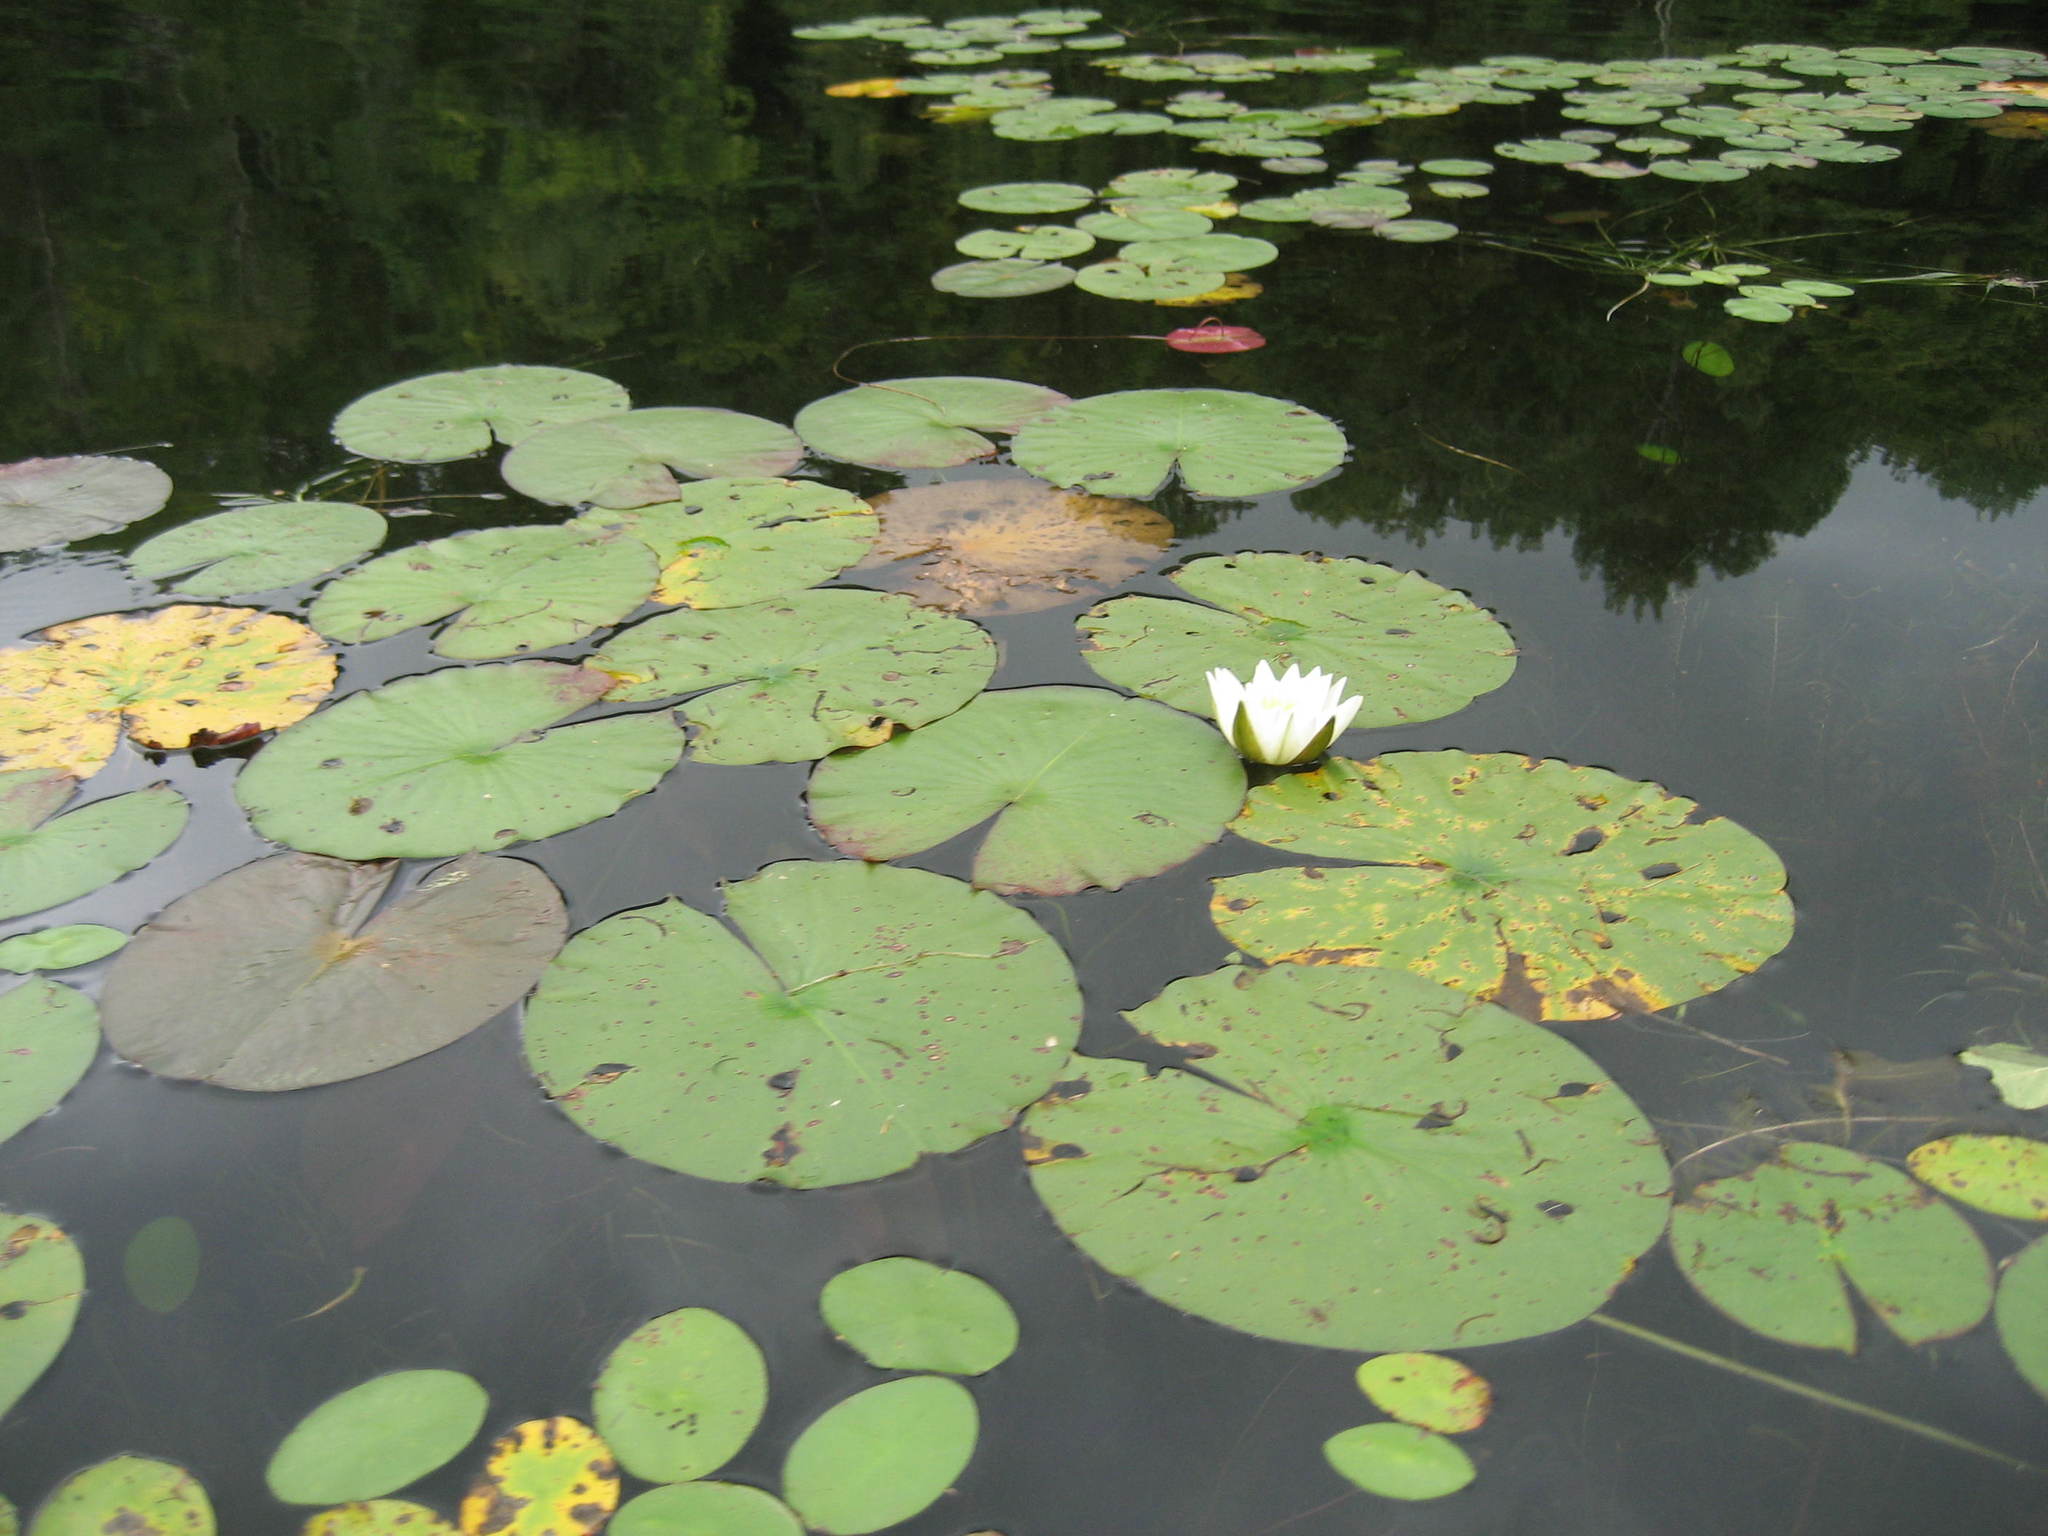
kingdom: Plantae
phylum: Tracheophyta
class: Magnoliopsida
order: Nymphaeales
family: Nymphaeaceae
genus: Nymphaea
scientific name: Nymphaea odorata
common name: Fragrant water-lily
